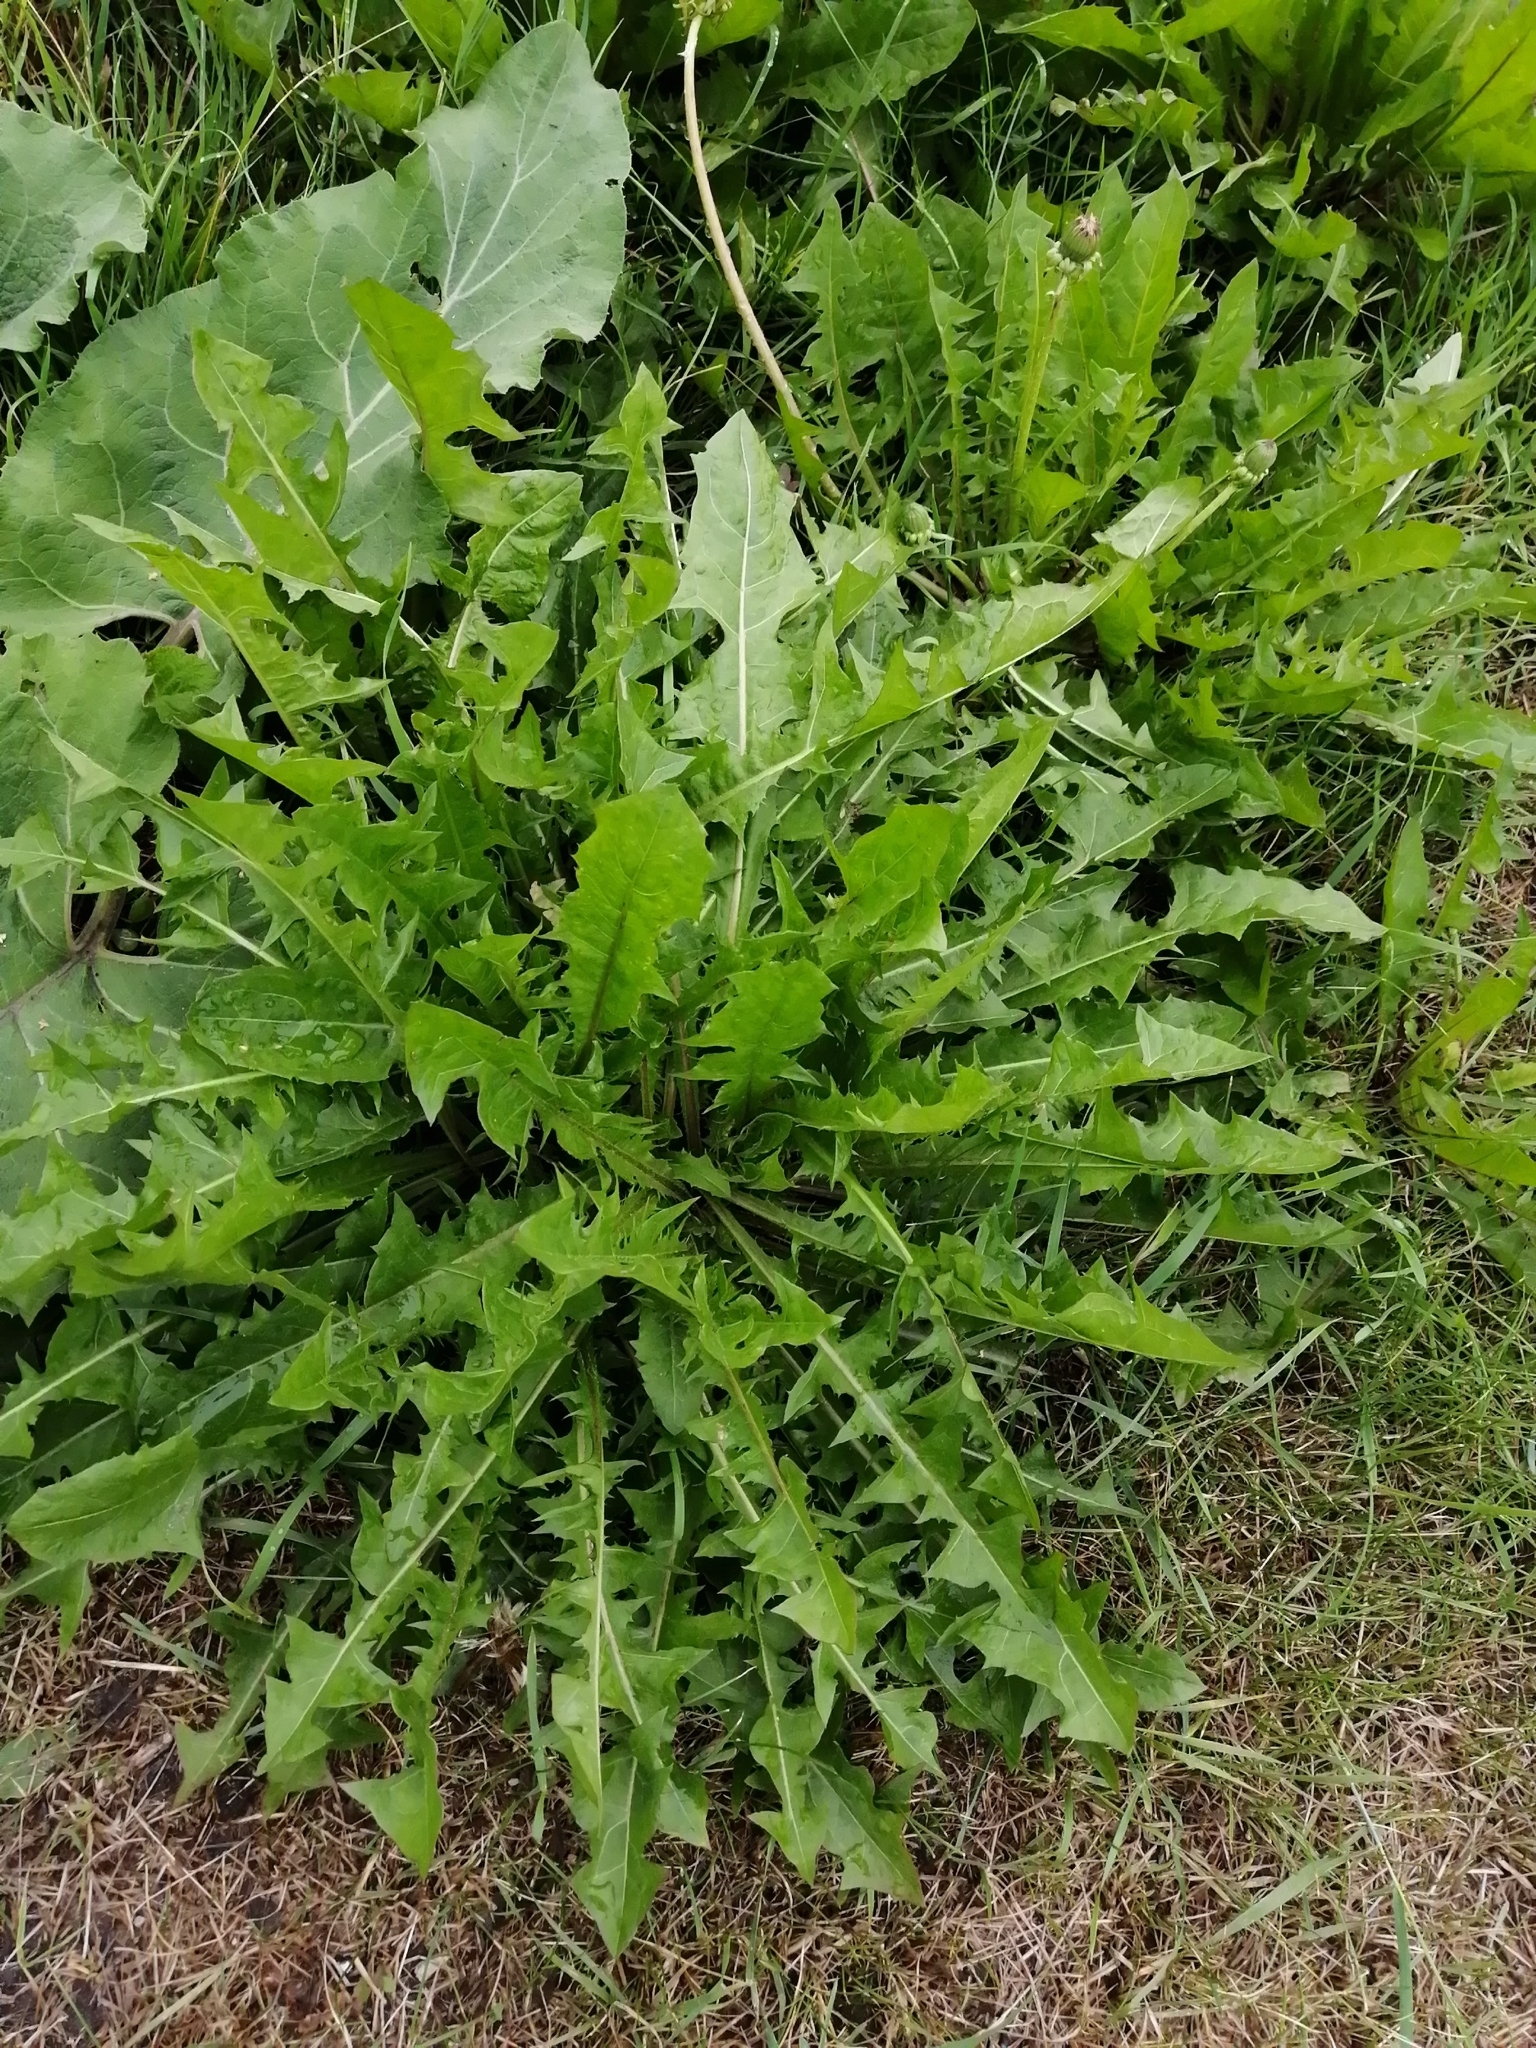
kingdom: Plantae
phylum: Tracheophyta
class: Magnoliopsida
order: Asterales
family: Asteraceae
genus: Taraxacum
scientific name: Taraxacum officinale
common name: Common dandelion
